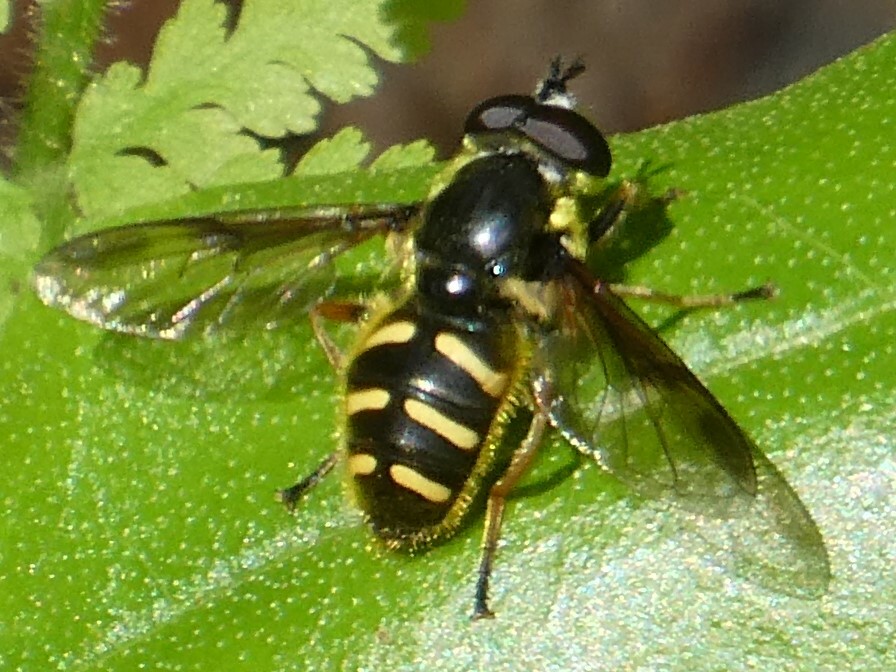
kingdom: Animalia
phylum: Arthropoda
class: Insecta
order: Diptera
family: Syrphidae
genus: Sericomyia
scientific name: Sericomyia chrysotoxoides
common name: Oblique-banded pond fly
